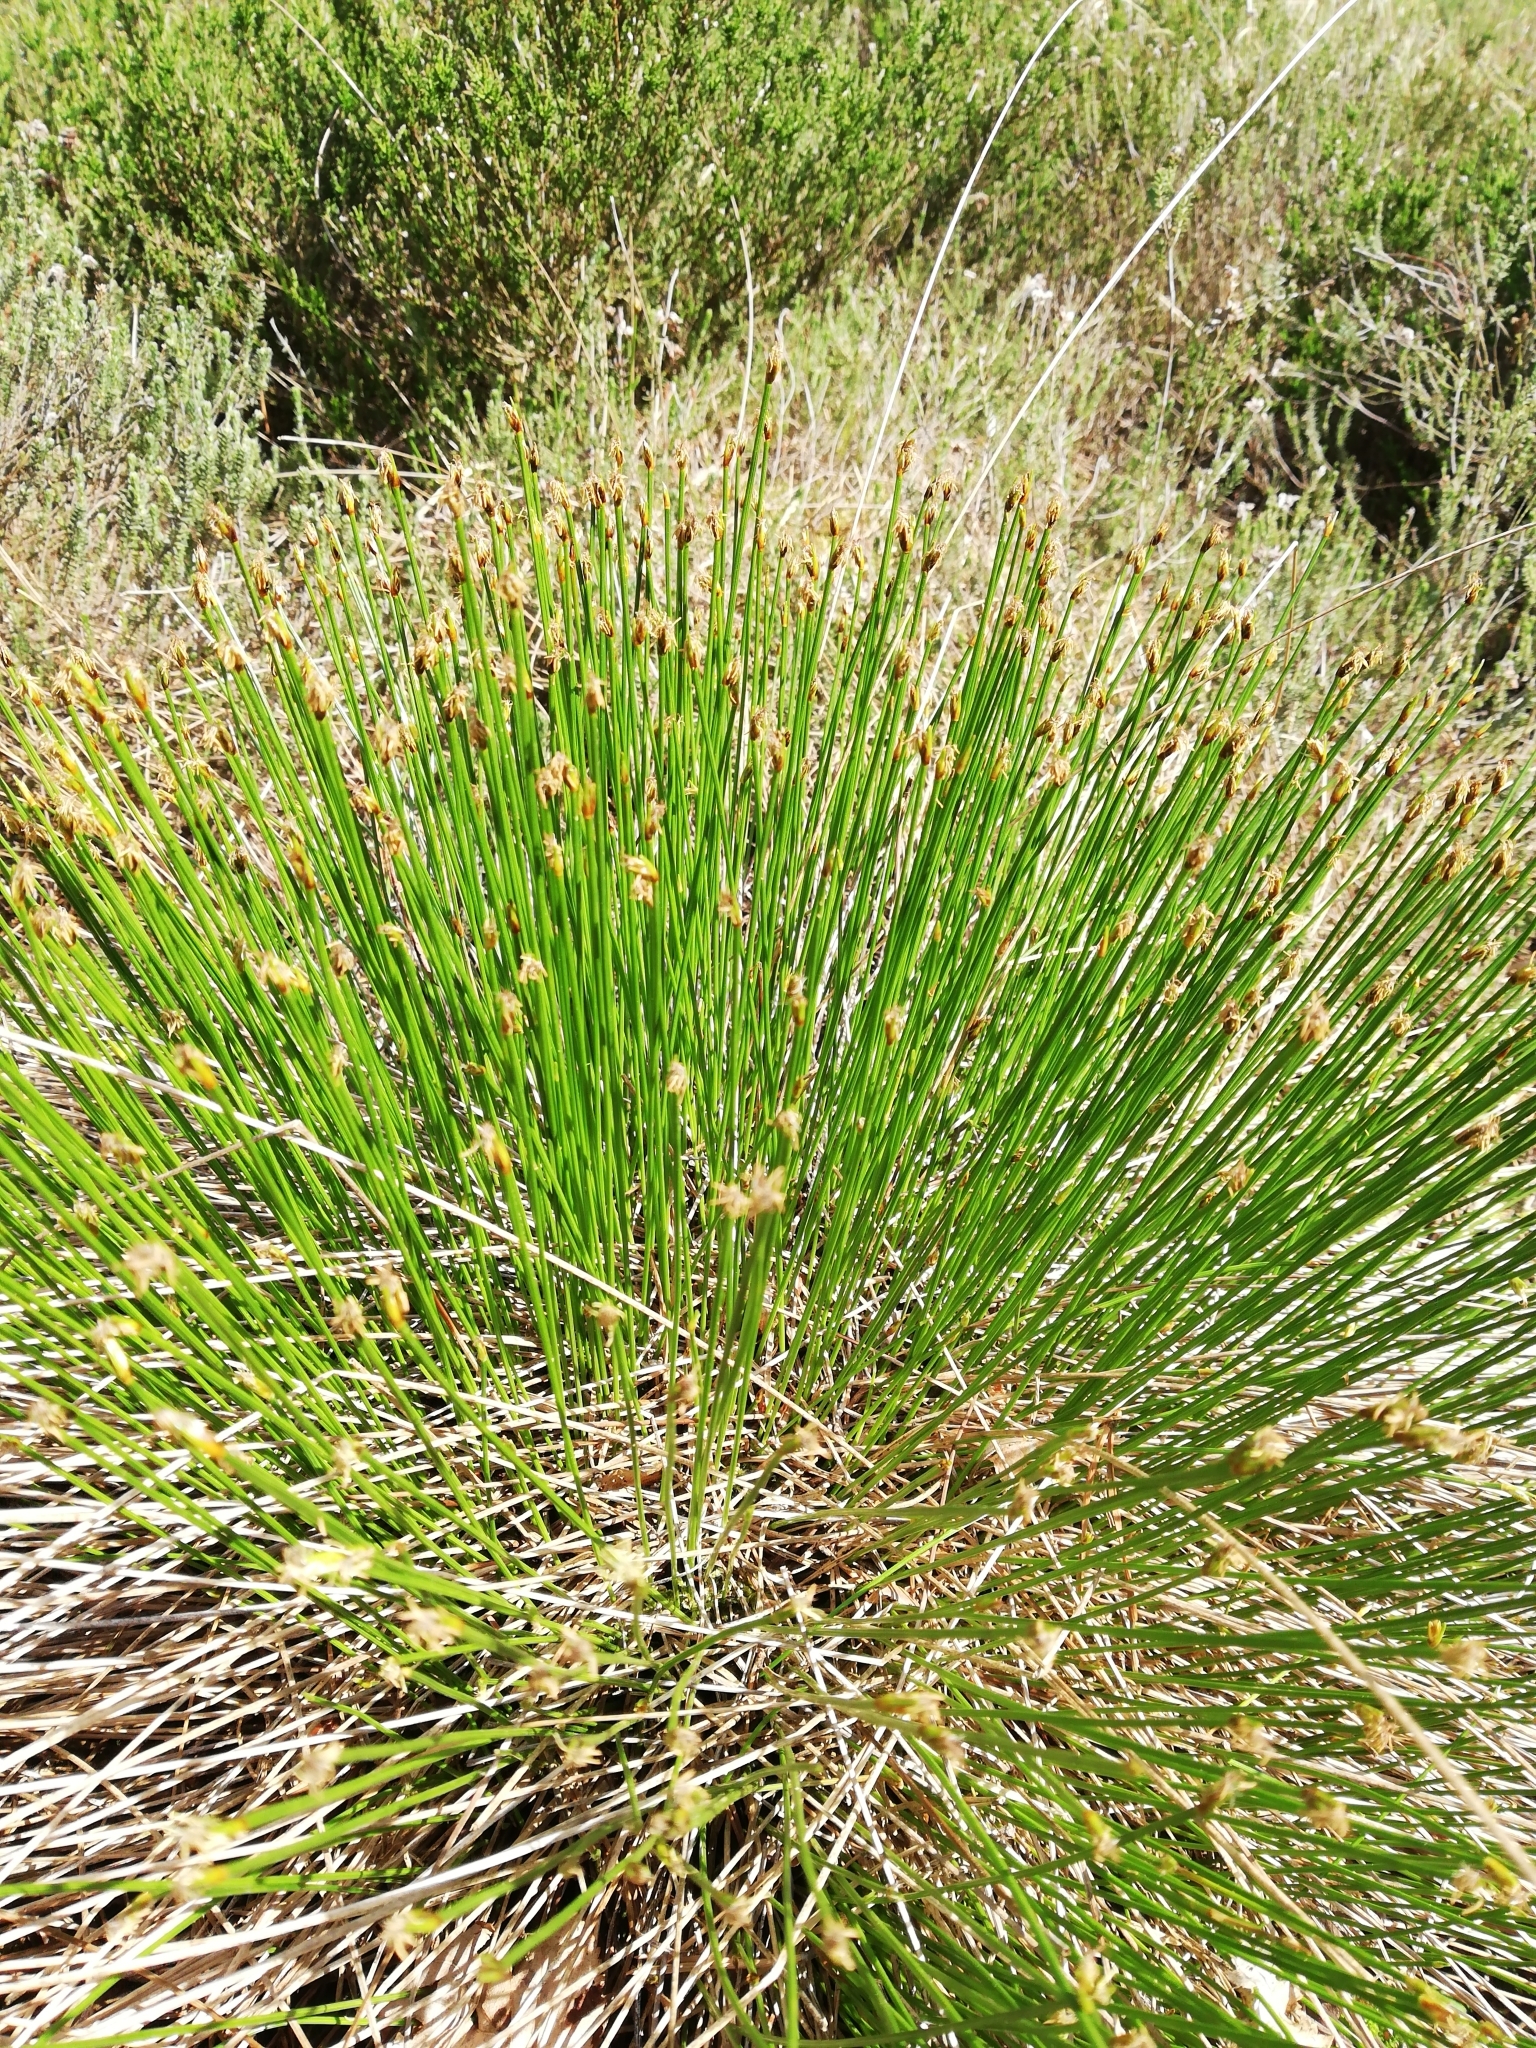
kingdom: Plantae
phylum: Tracheophyta
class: Liliopsida
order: Poales
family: Cyperaceae
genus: Trichophorum
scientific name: Trichophorum cespitosum
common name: Cespitose bulrush
